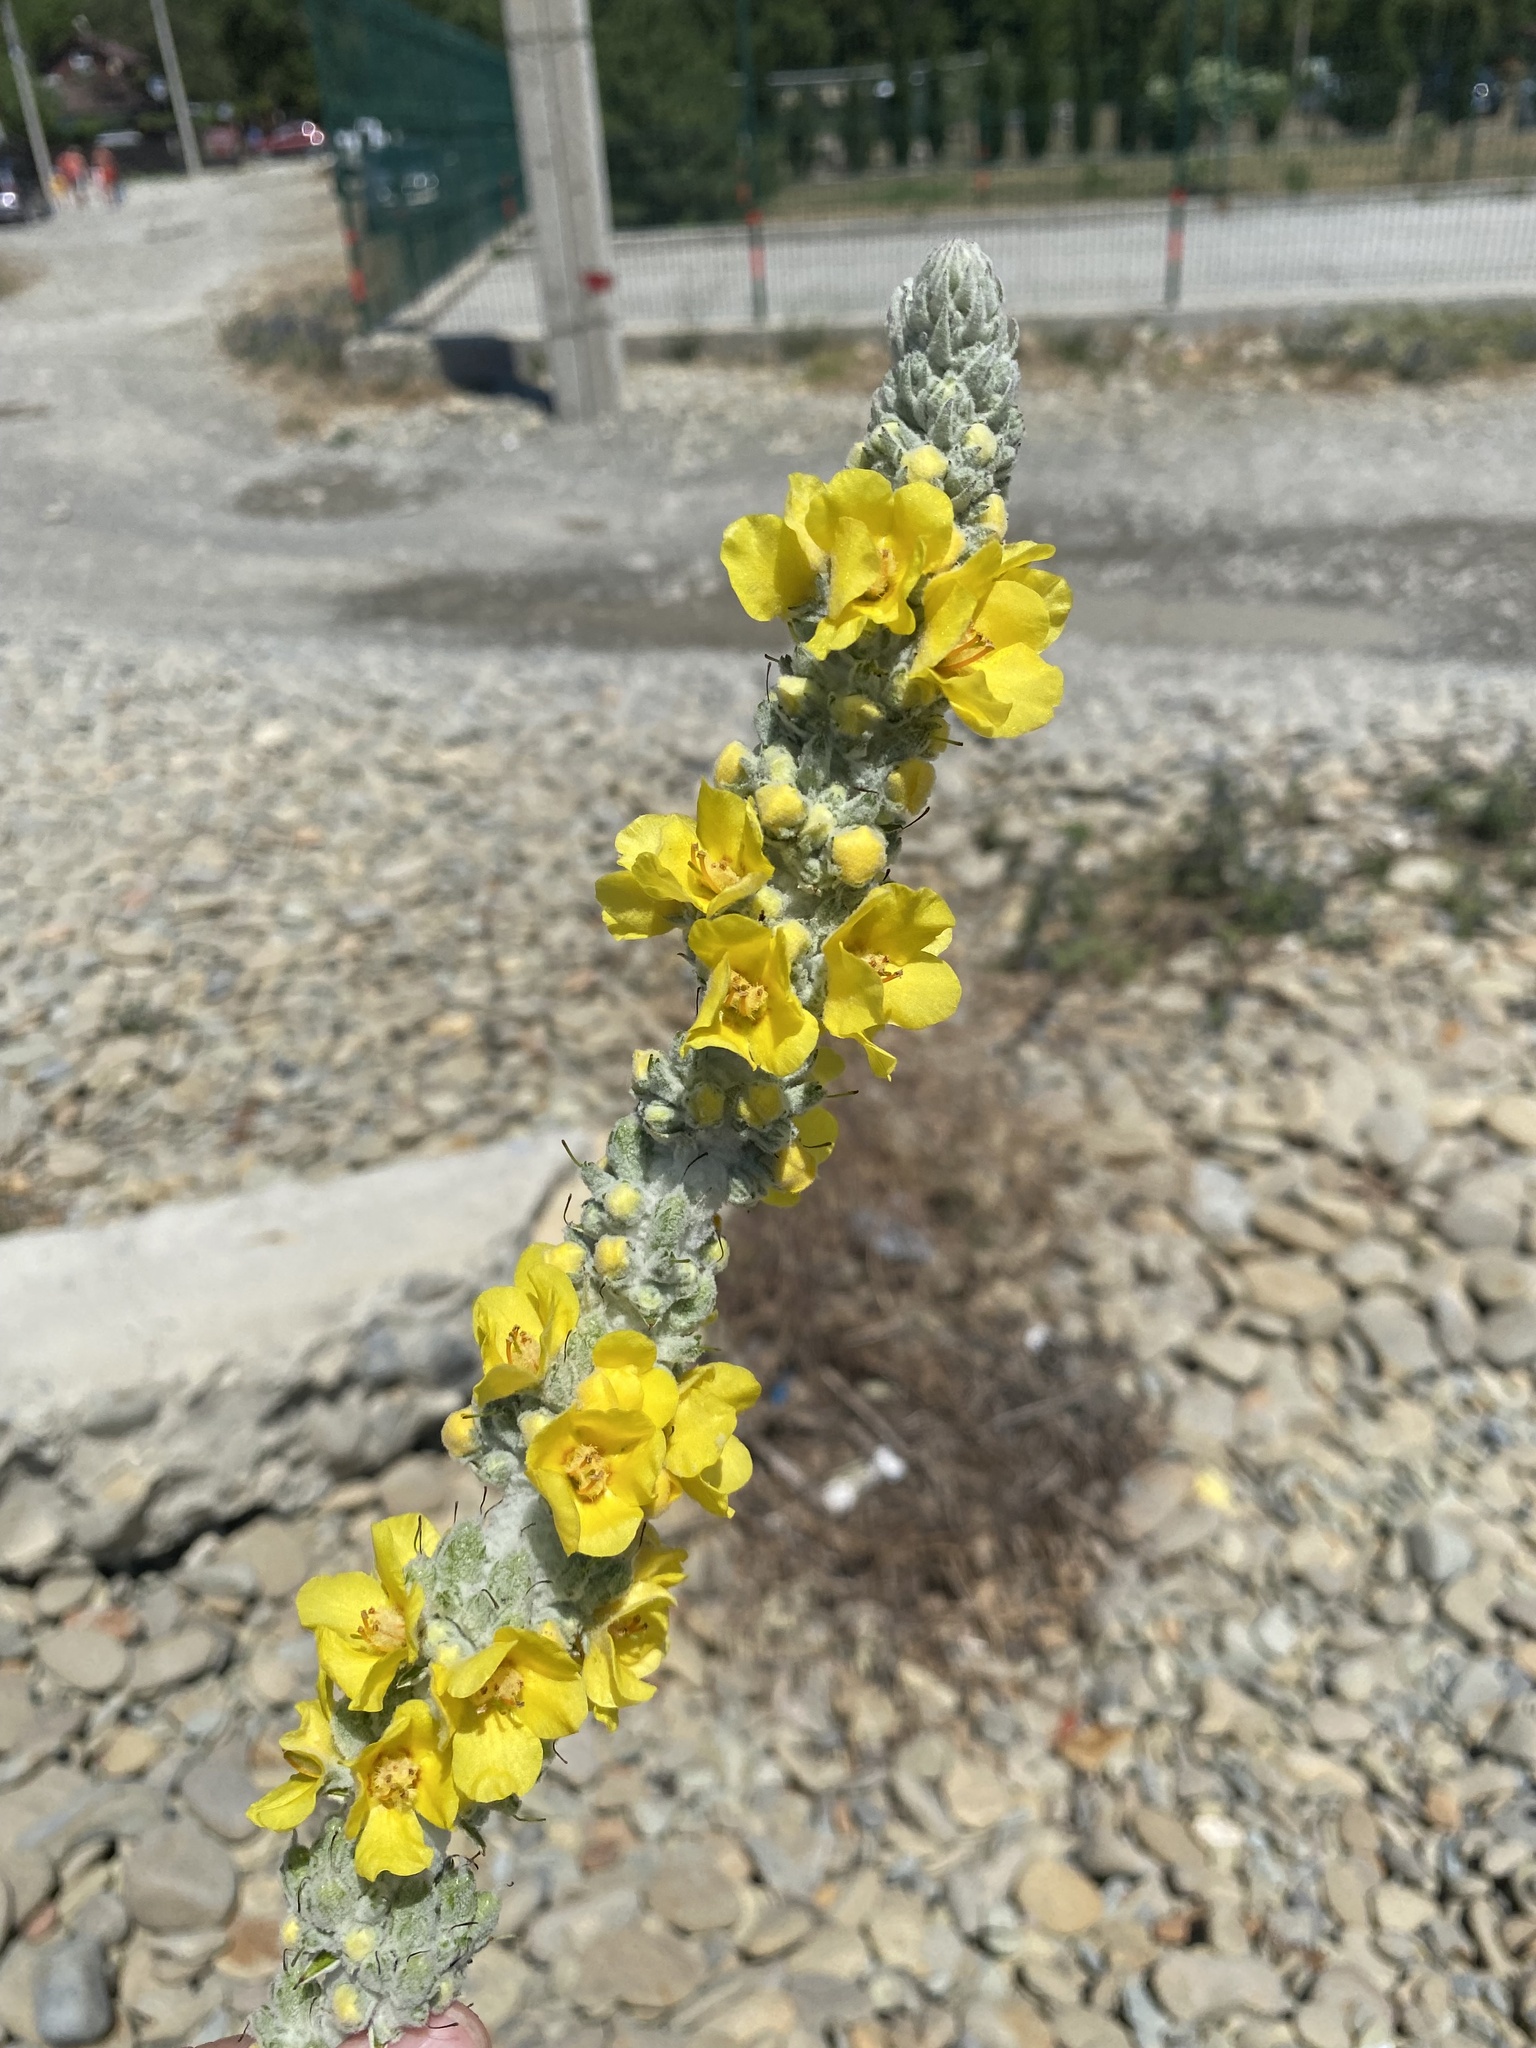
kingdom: Plantae
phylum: Tracheophyta
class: Magnoliopsida
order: Lamiales
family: Scrophulariaceae
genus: Verbascum
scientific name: Verbascum gnaphalodes
